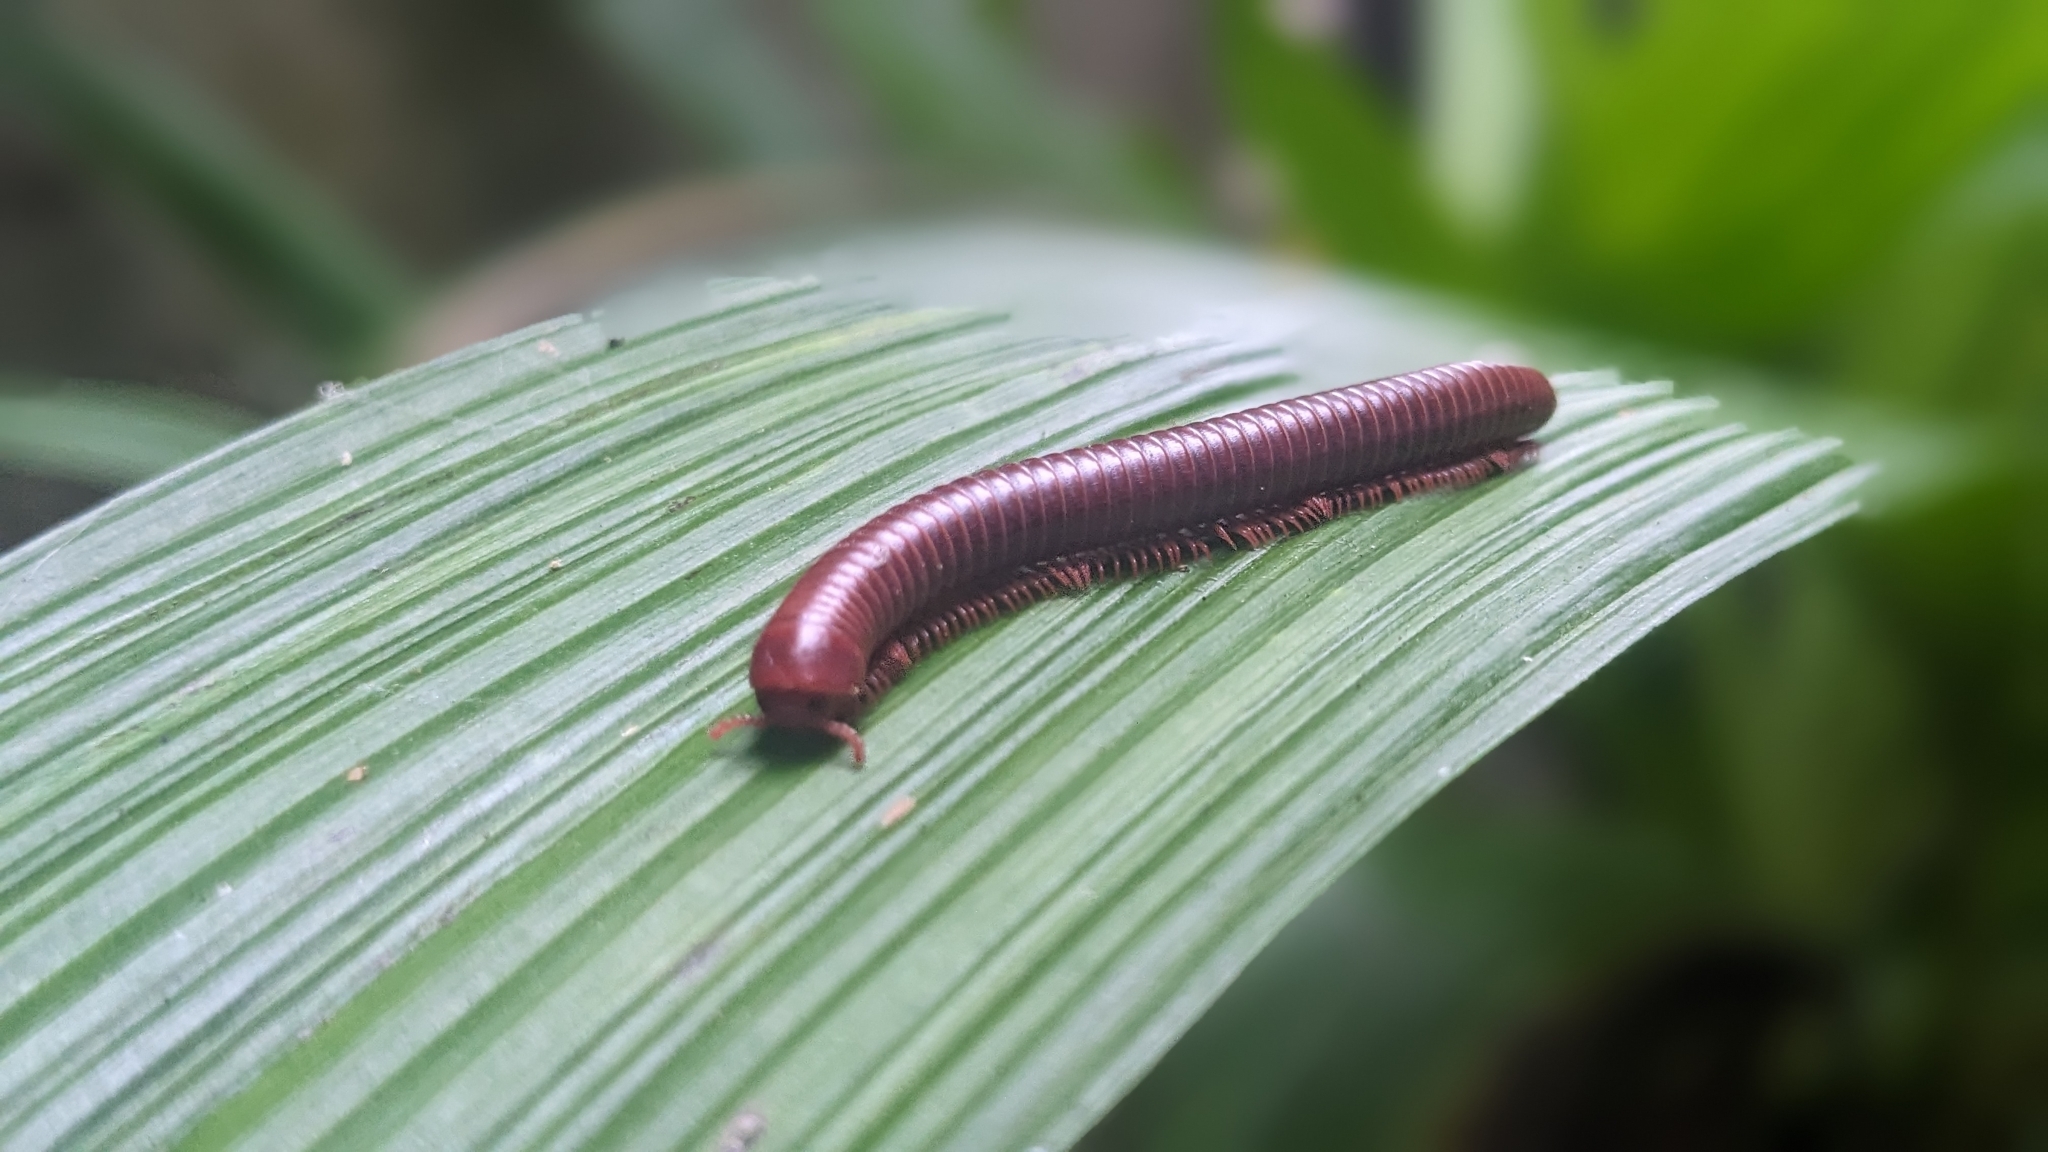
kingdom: Animalia
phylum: Arthropoda
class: Diplopoda
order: Spirobolida
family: Pachybolidae
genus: Trigoniulus
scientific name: Trigoniulus corallinus
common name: Millipede
